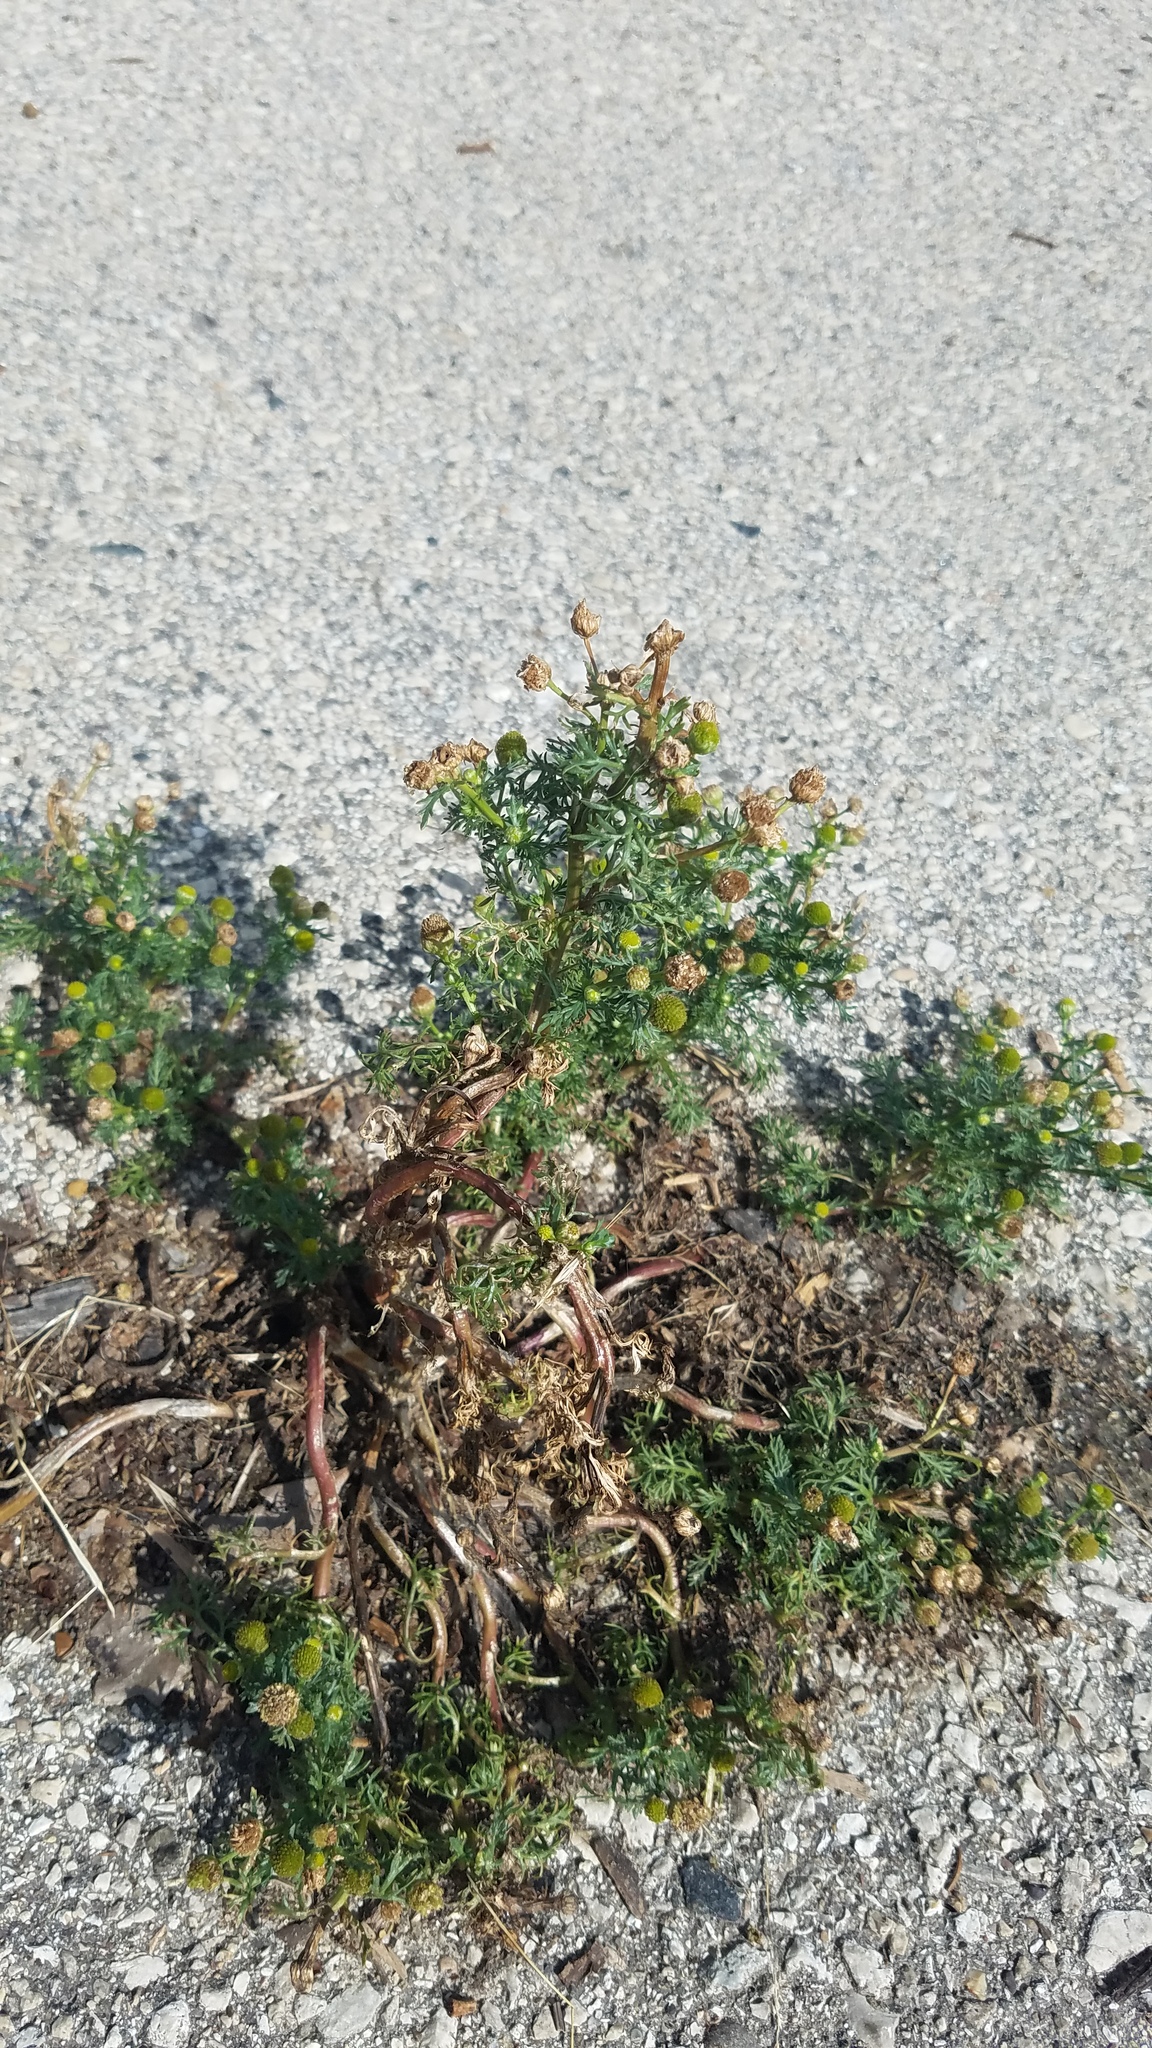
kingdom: Plantae
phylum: Tracheophyta
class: Magnoliopsida
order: Asterales
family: Asteraceae
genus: Matricaria
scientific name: Matricaria discoidea
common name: Disc mayweed
